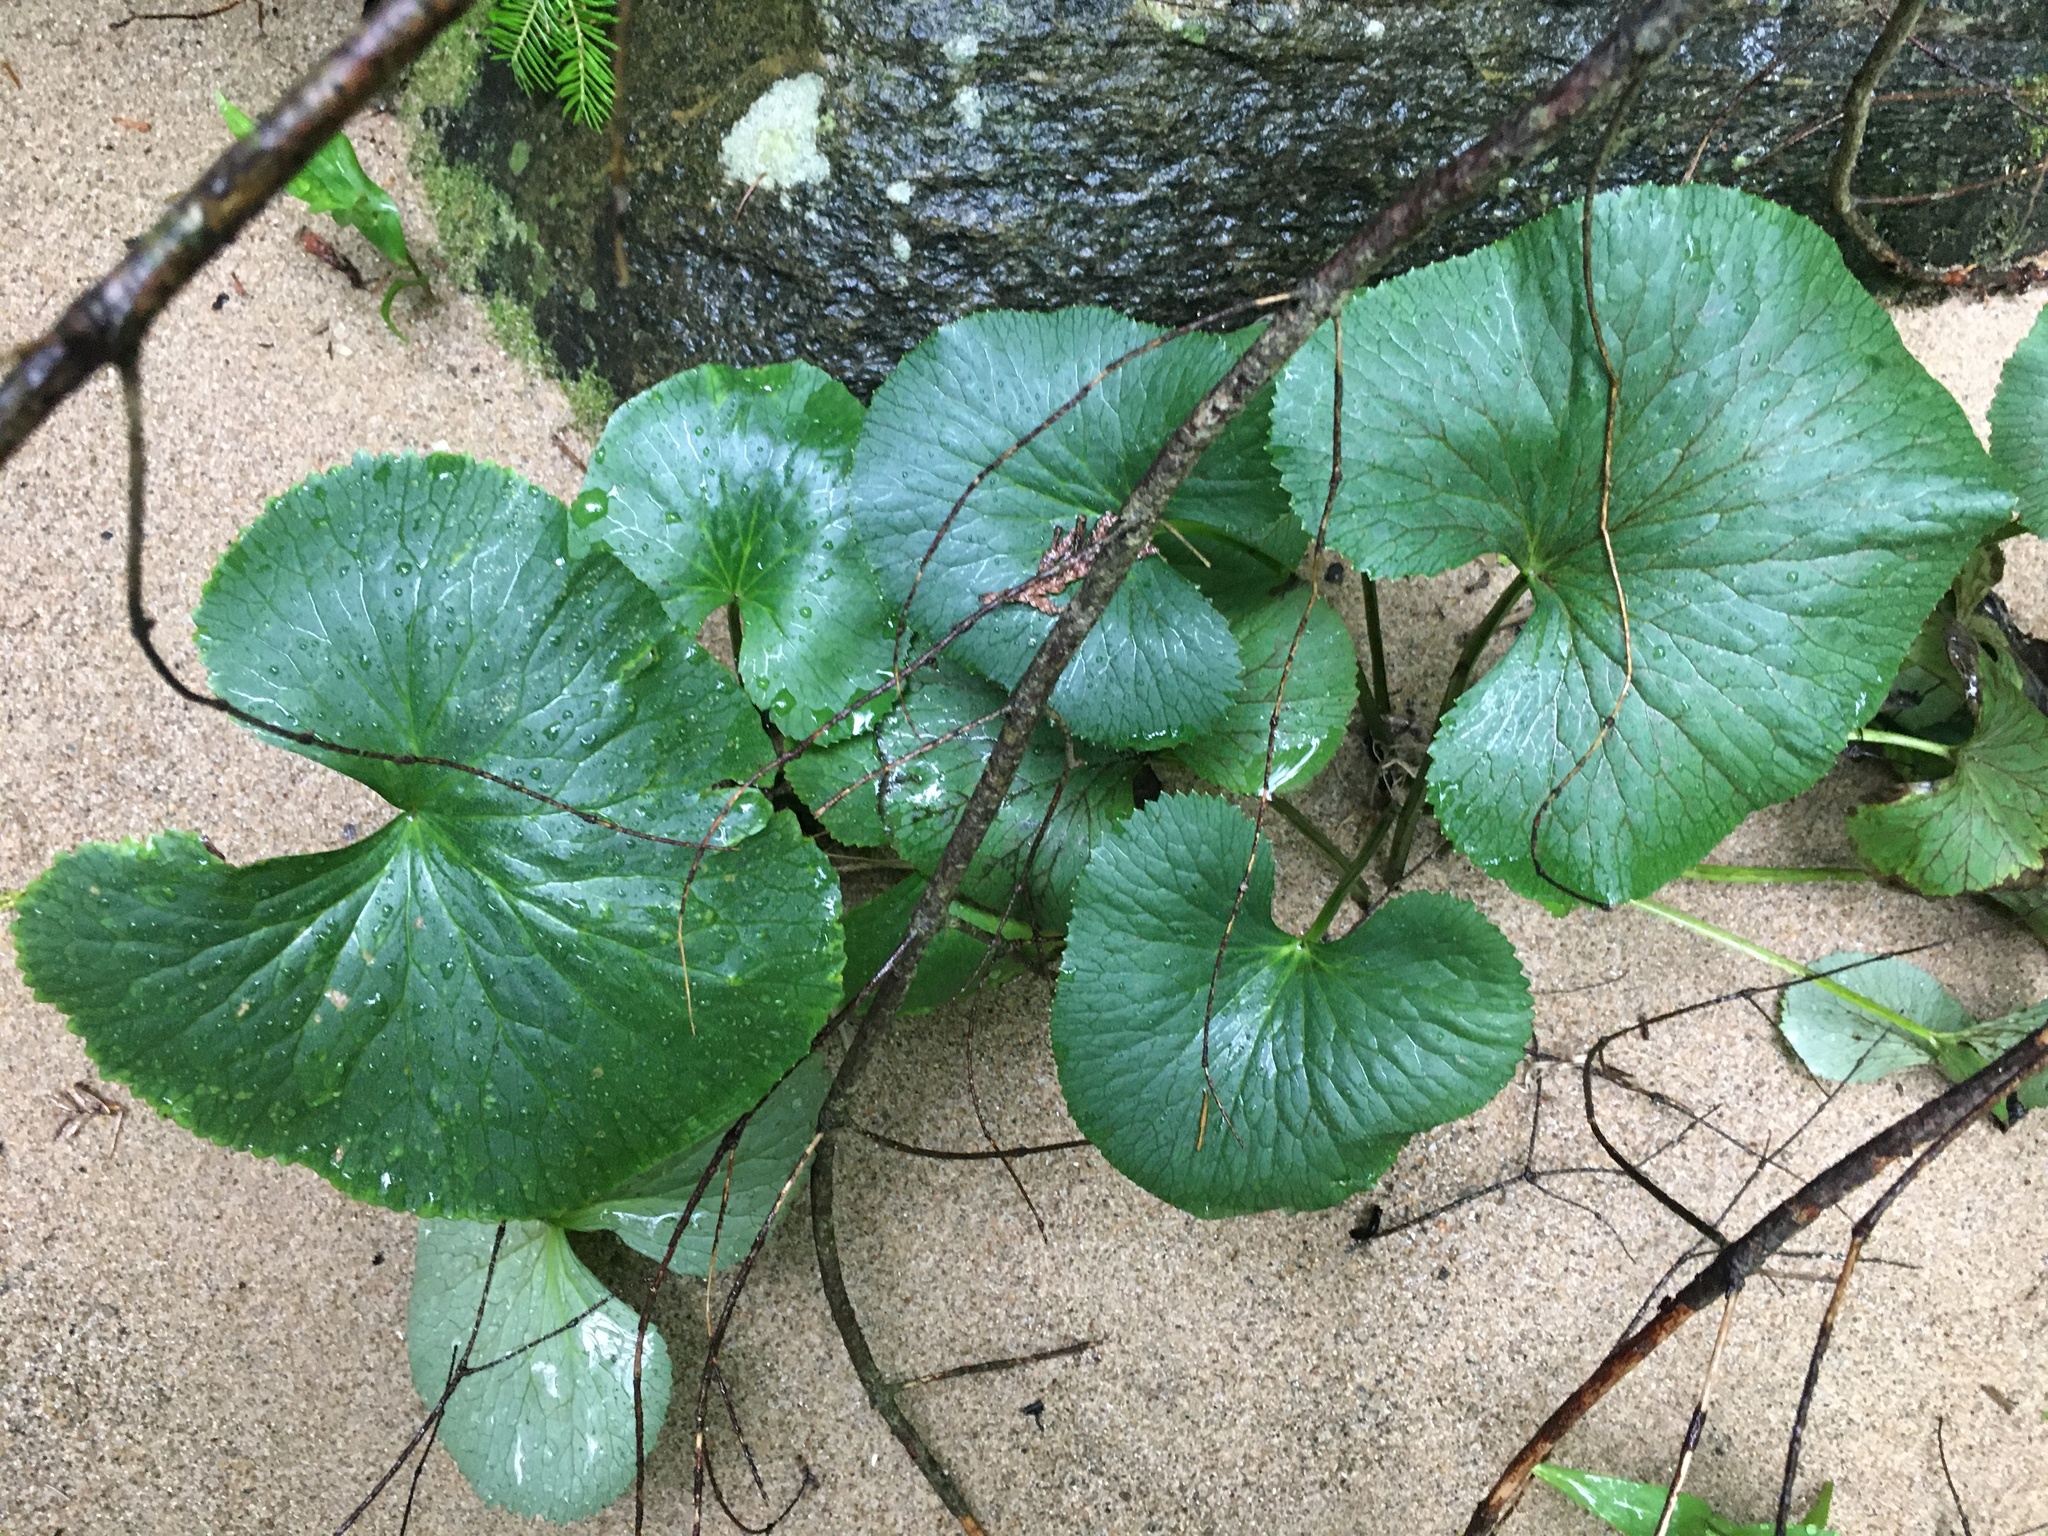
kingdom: Plantae
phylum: Tracheophyta
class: Magnoliopsida
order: Ranunculales
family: Ranunculaceae
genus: Caltha
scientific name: Caltha palustris
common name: Marsh marigold
